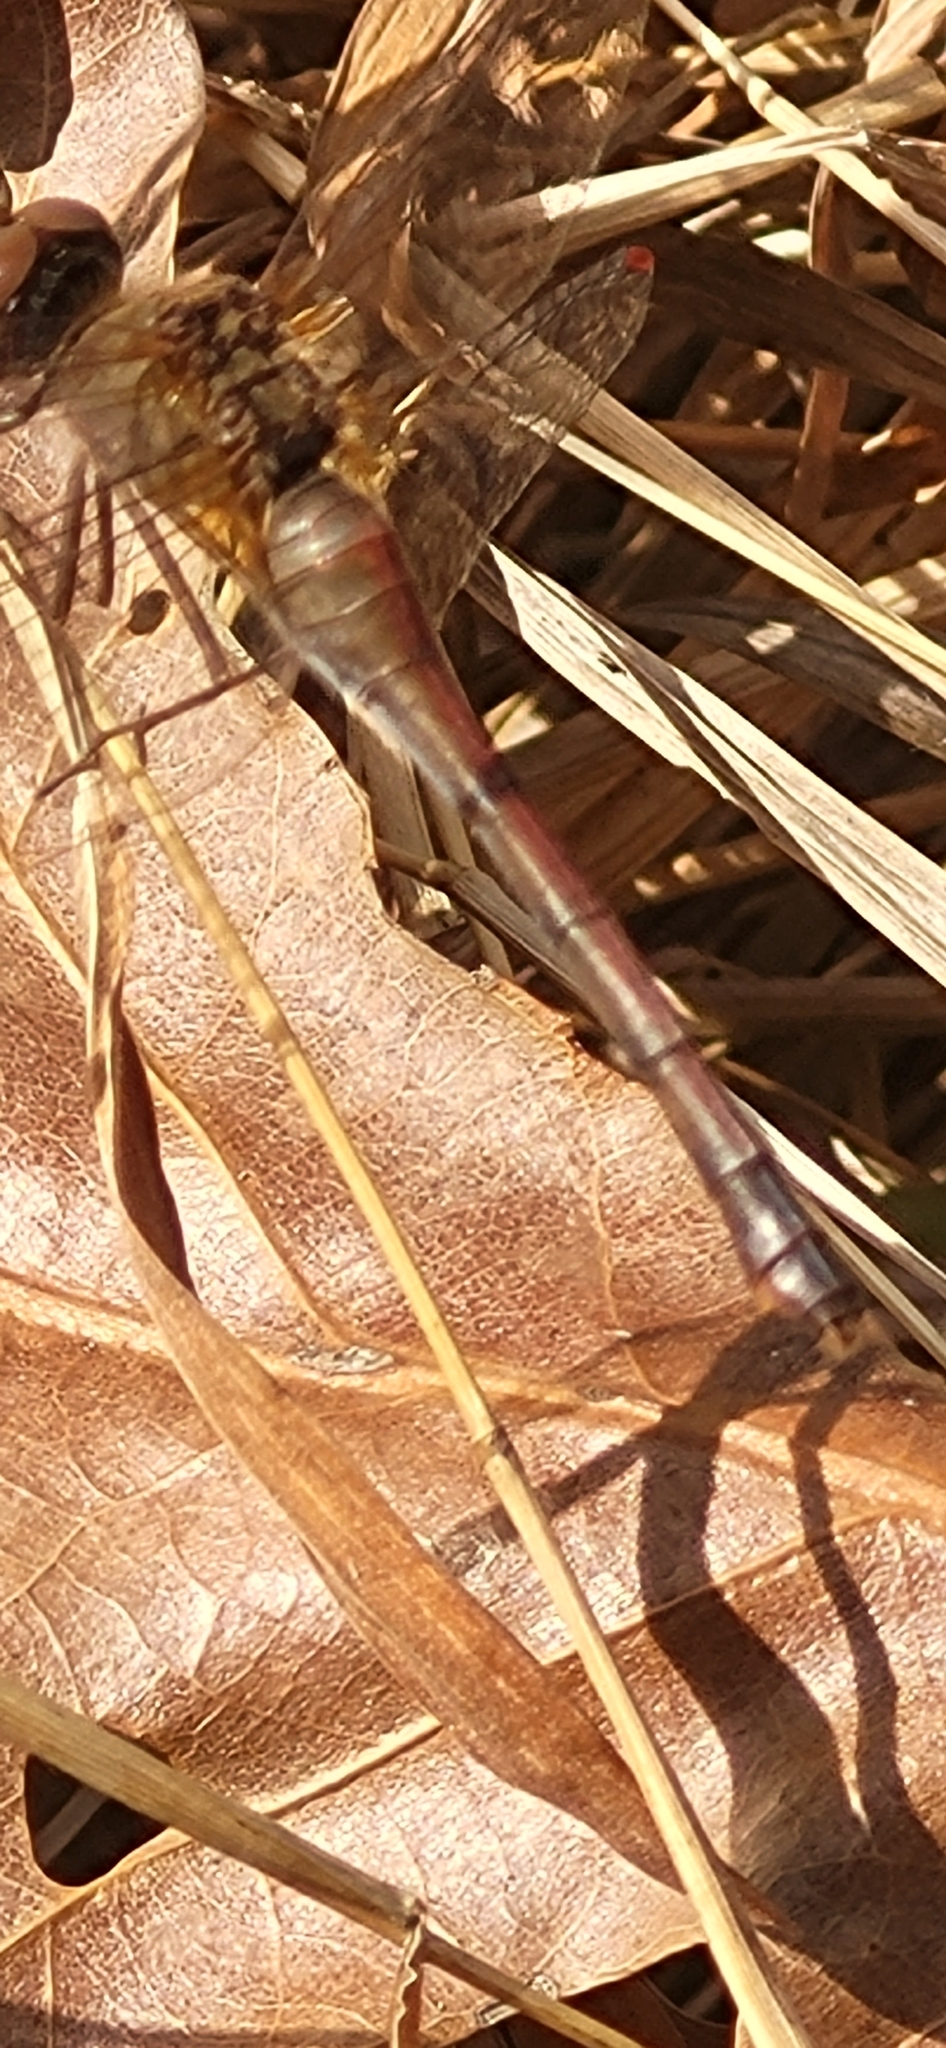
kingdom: Animalia
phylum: Arthropoda
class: Insecta
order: Odonata
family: Libellulidae
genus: Sympetrum
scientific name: Sympetrum vicinum
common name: Autumn meadowhawk
